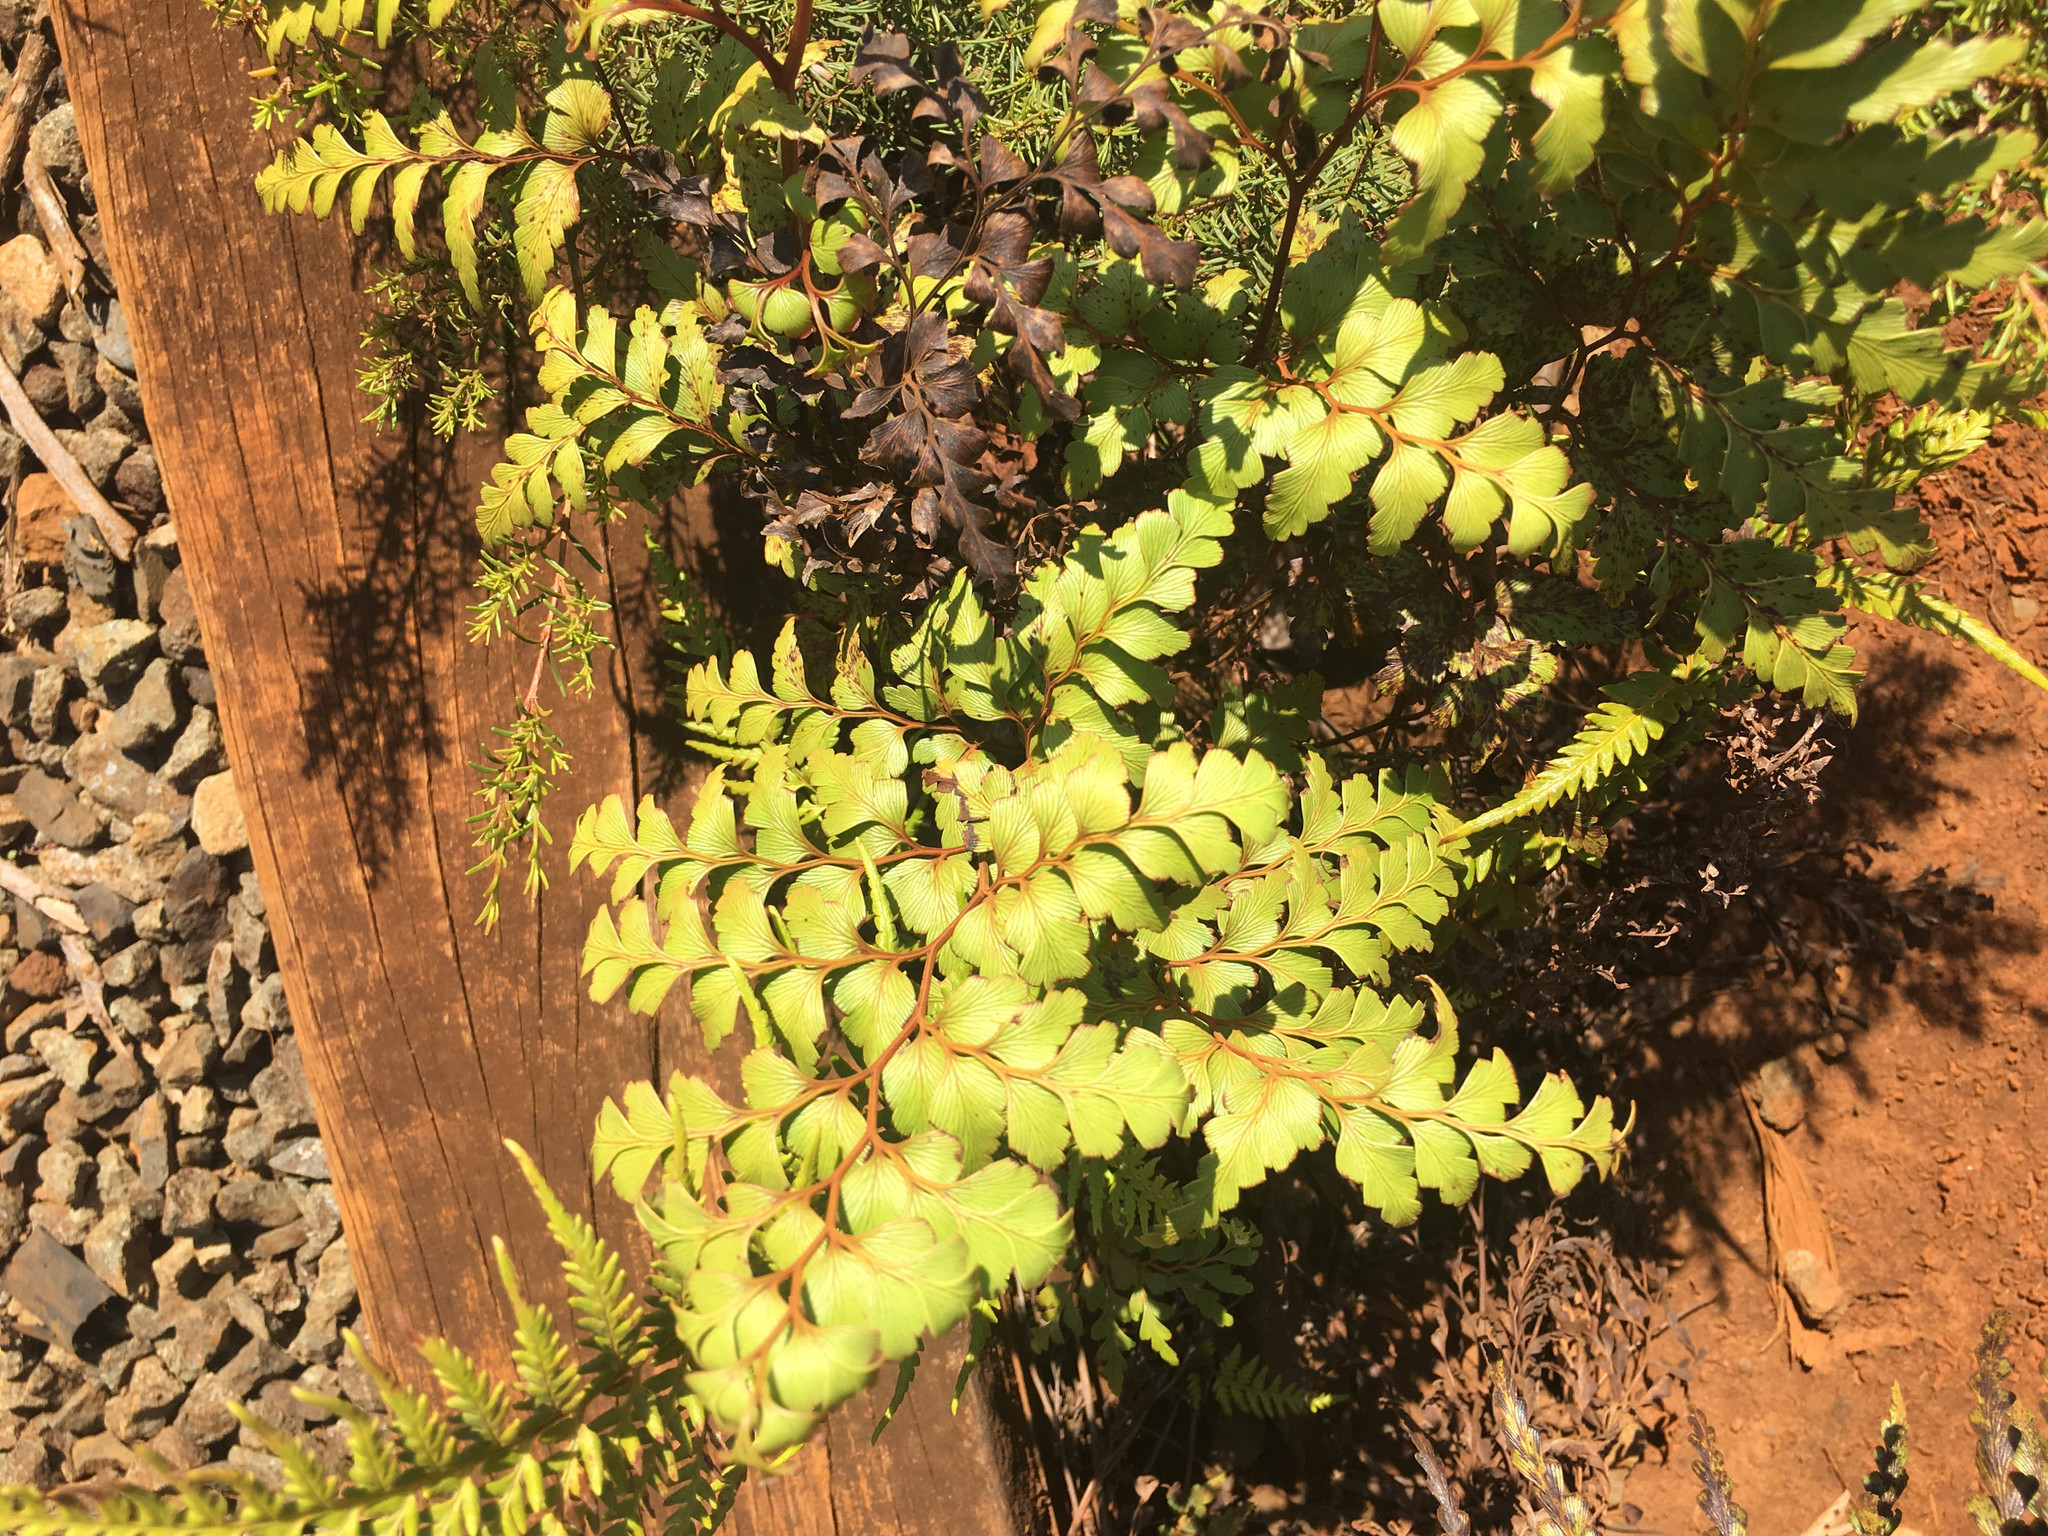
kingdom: Plantae
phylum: Tracheophyta
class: Polypodiopsida
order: Polypodiales
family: Lindsaeaceae
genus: Odontosoria
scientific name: Odontosoria deltoidea
